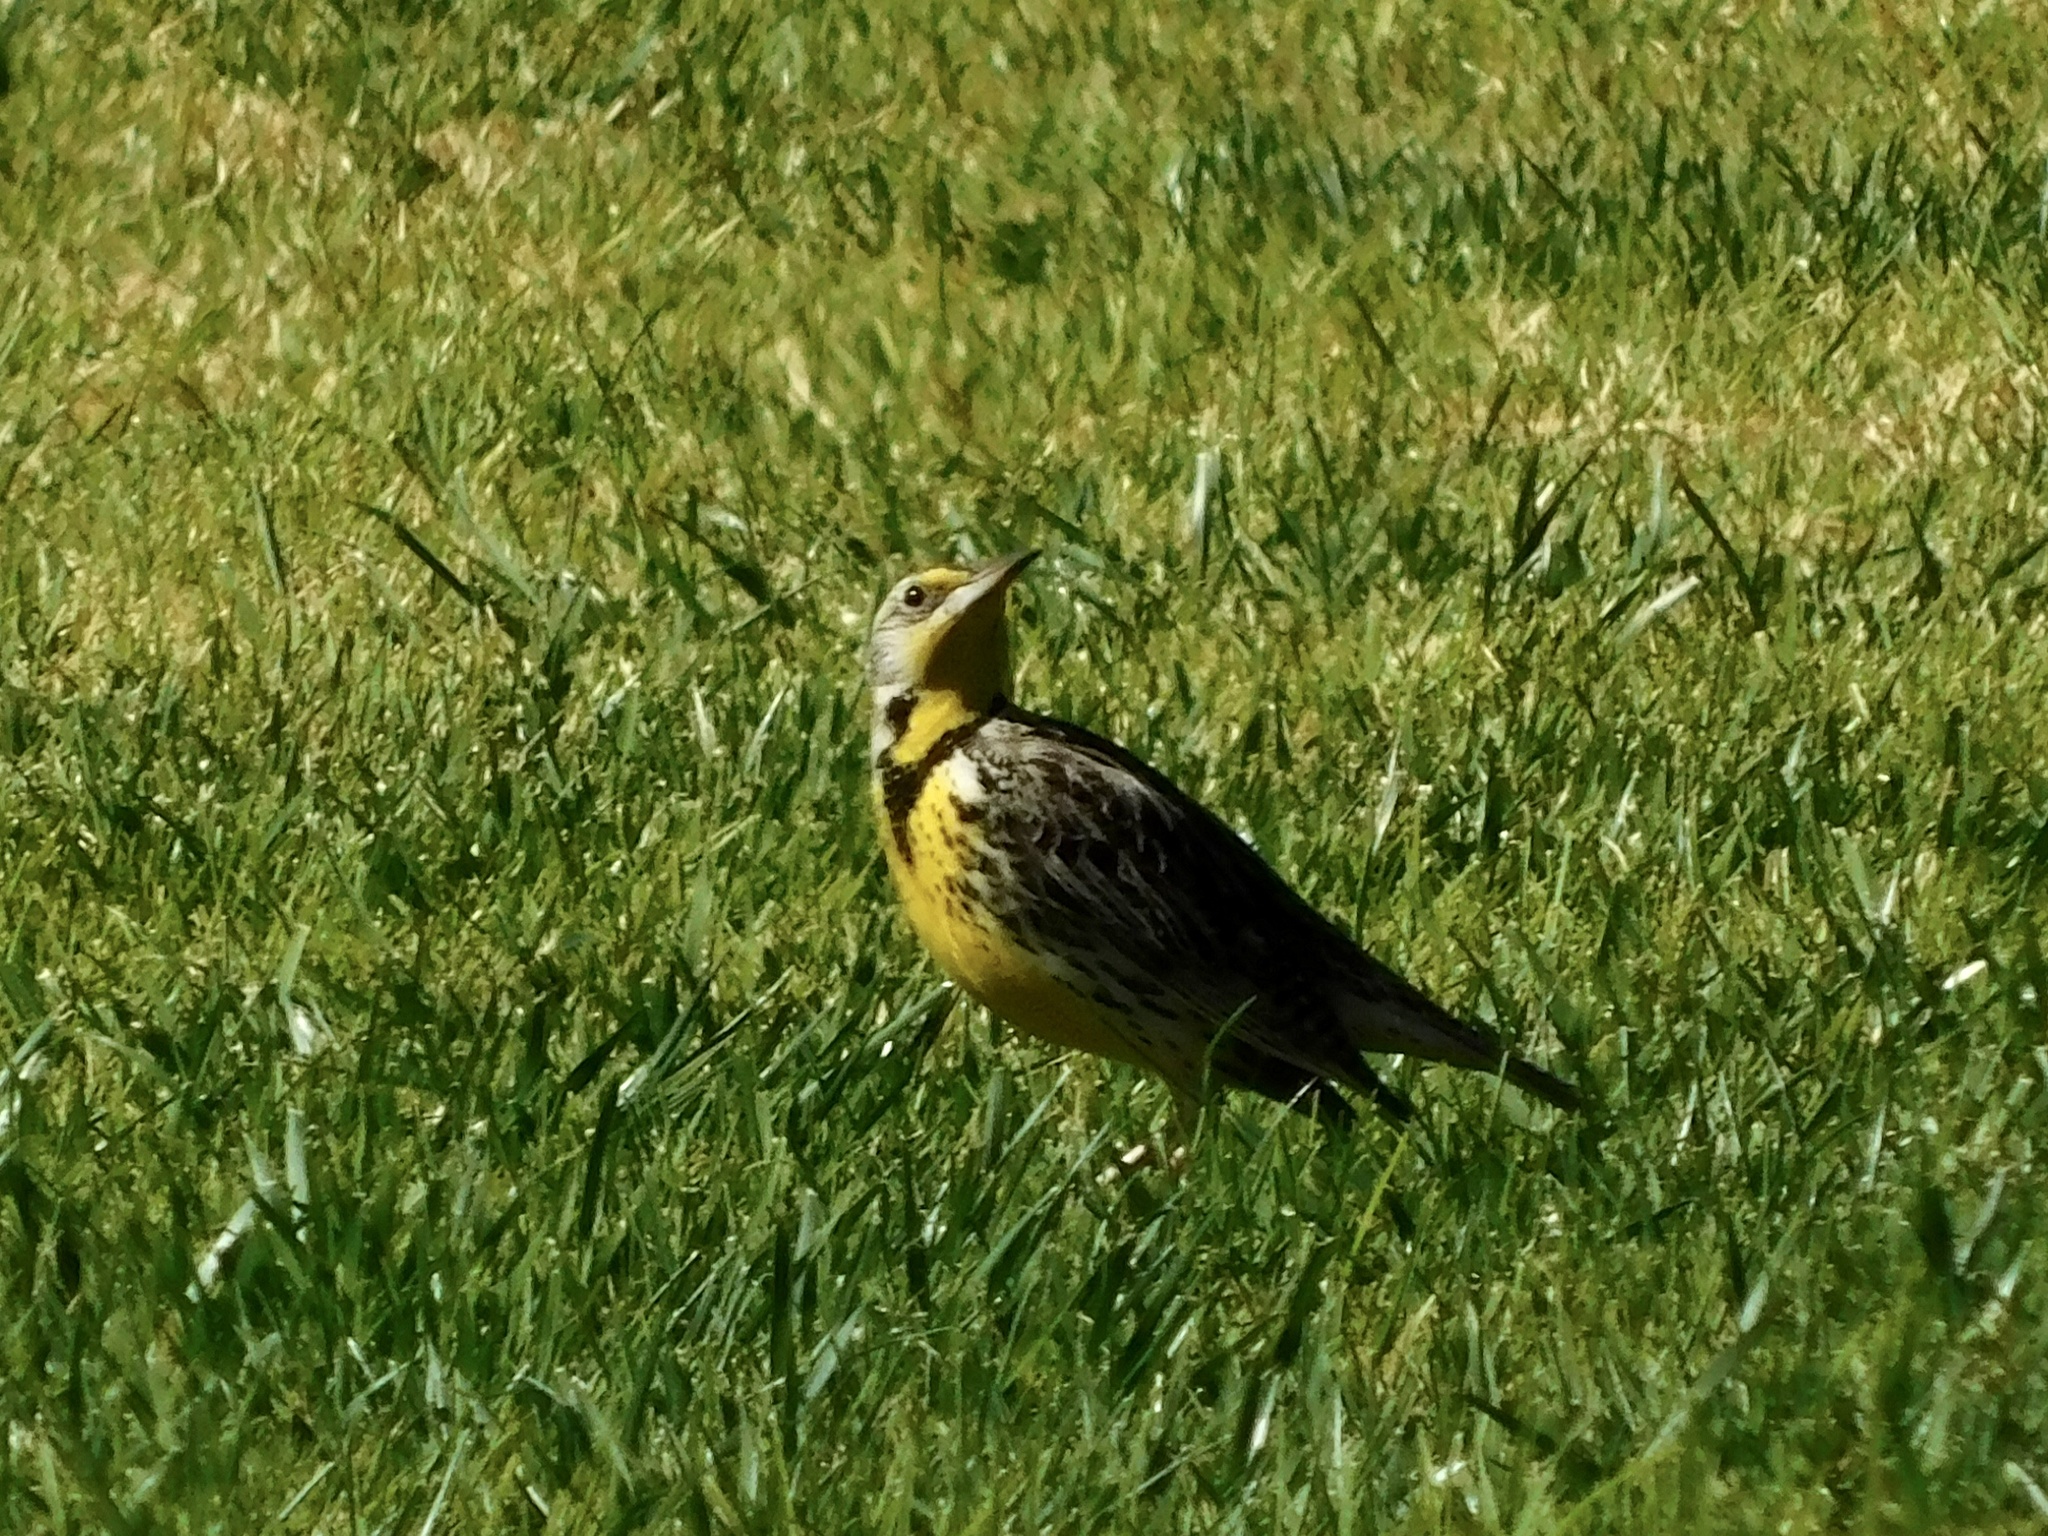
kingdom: Animalia
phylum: Chordata
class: Aves
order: Passeriformes
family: Icteridae
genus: Sturnella
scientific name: Sturnella neglecta
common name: Western meadowlark
